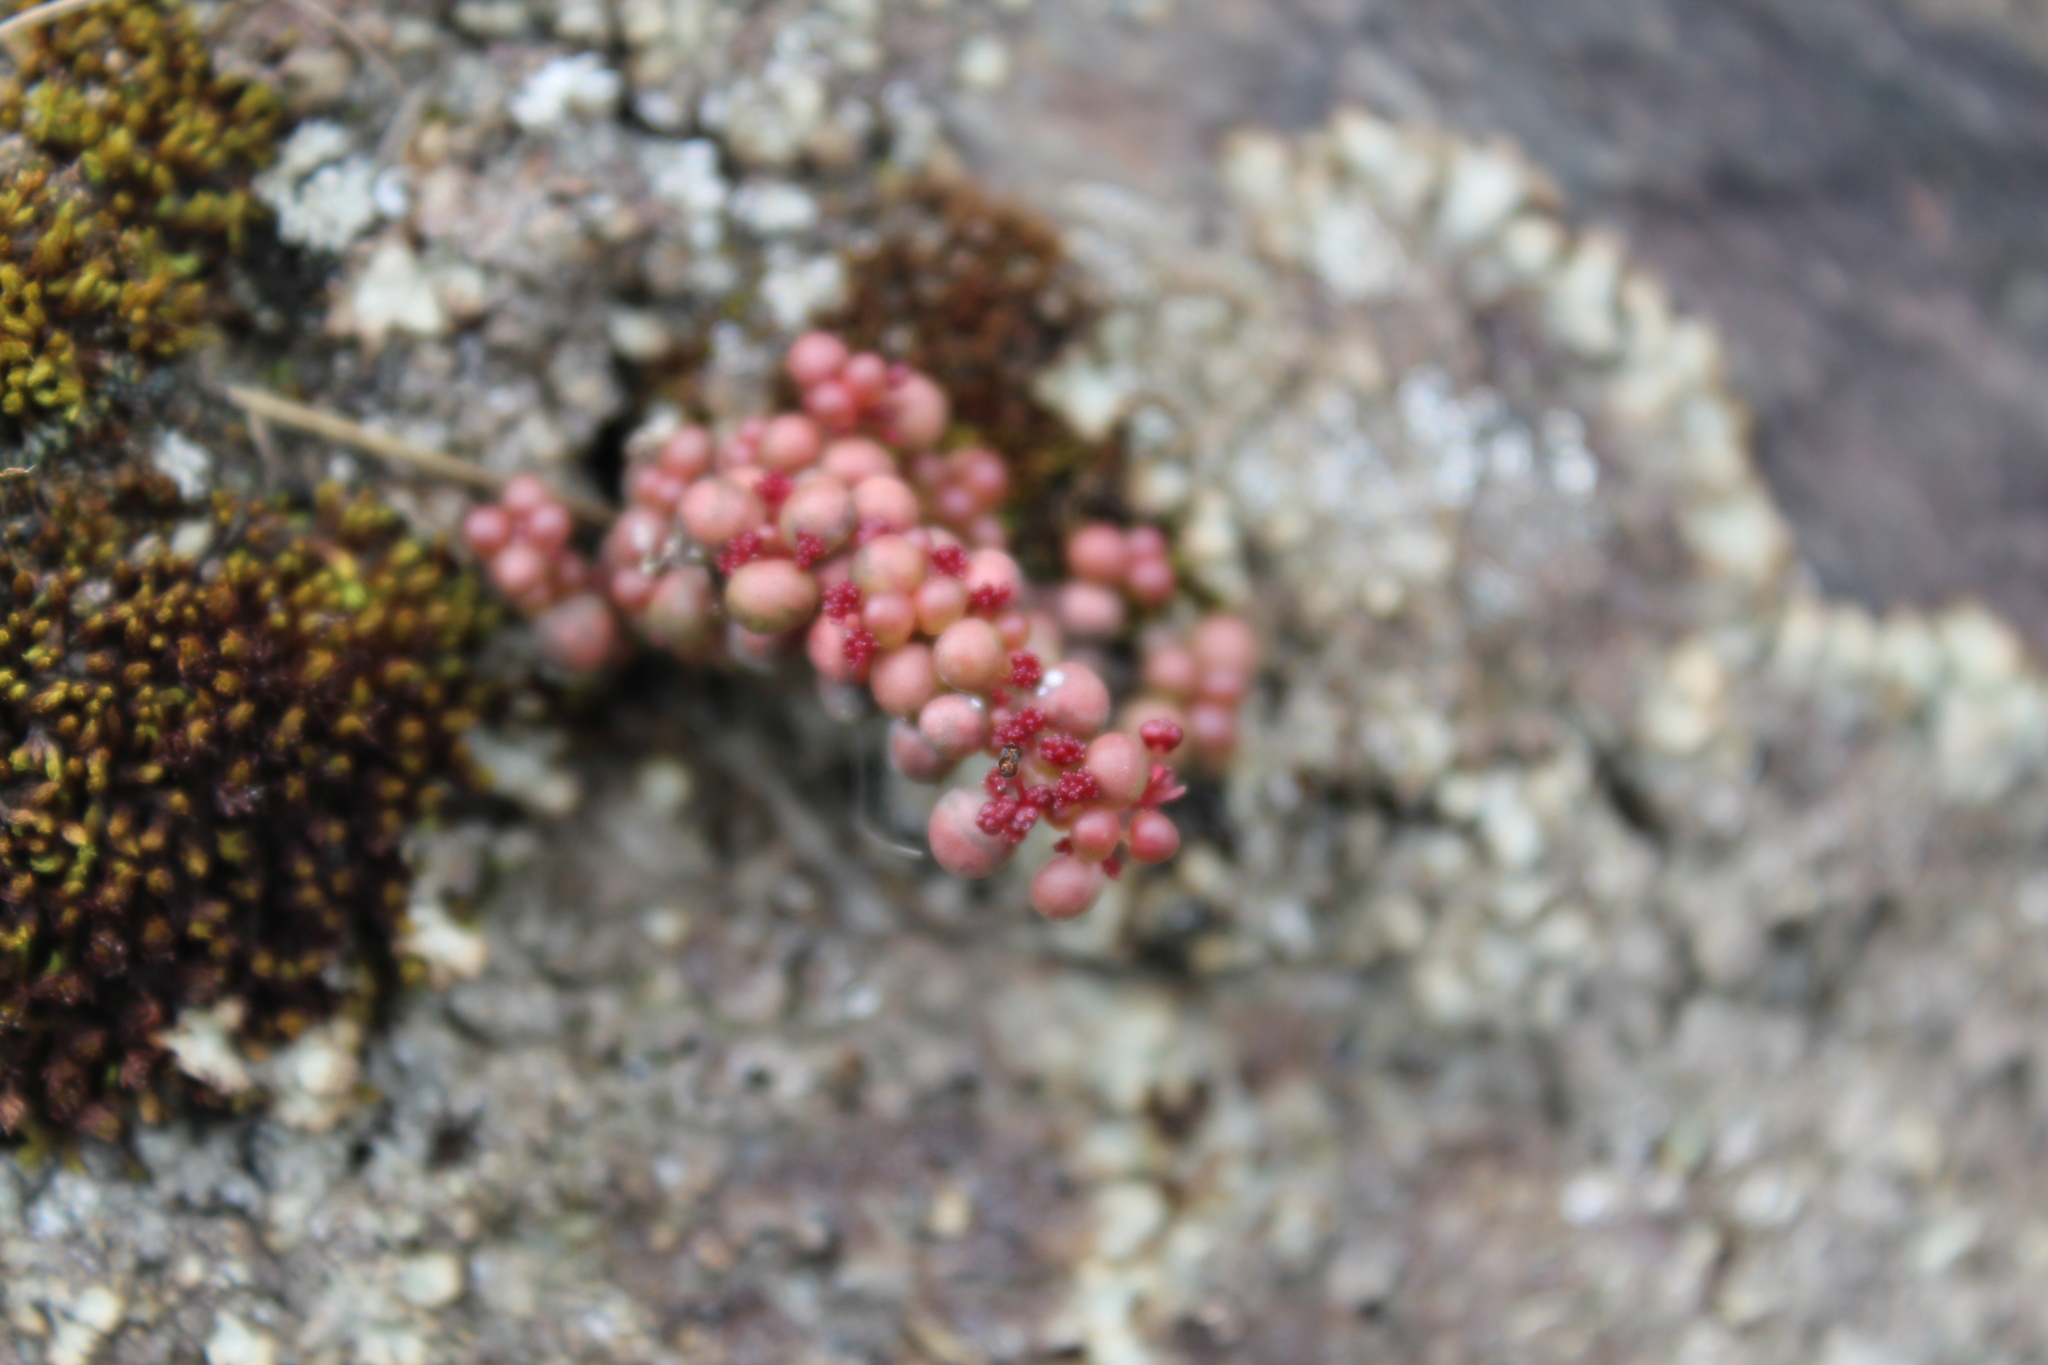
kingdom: Plantae
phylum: Tracheophyta
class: Magnoliopsida
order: Rosales
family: Urticaceae
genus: Pilea
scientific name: Pilea serpyllacea
